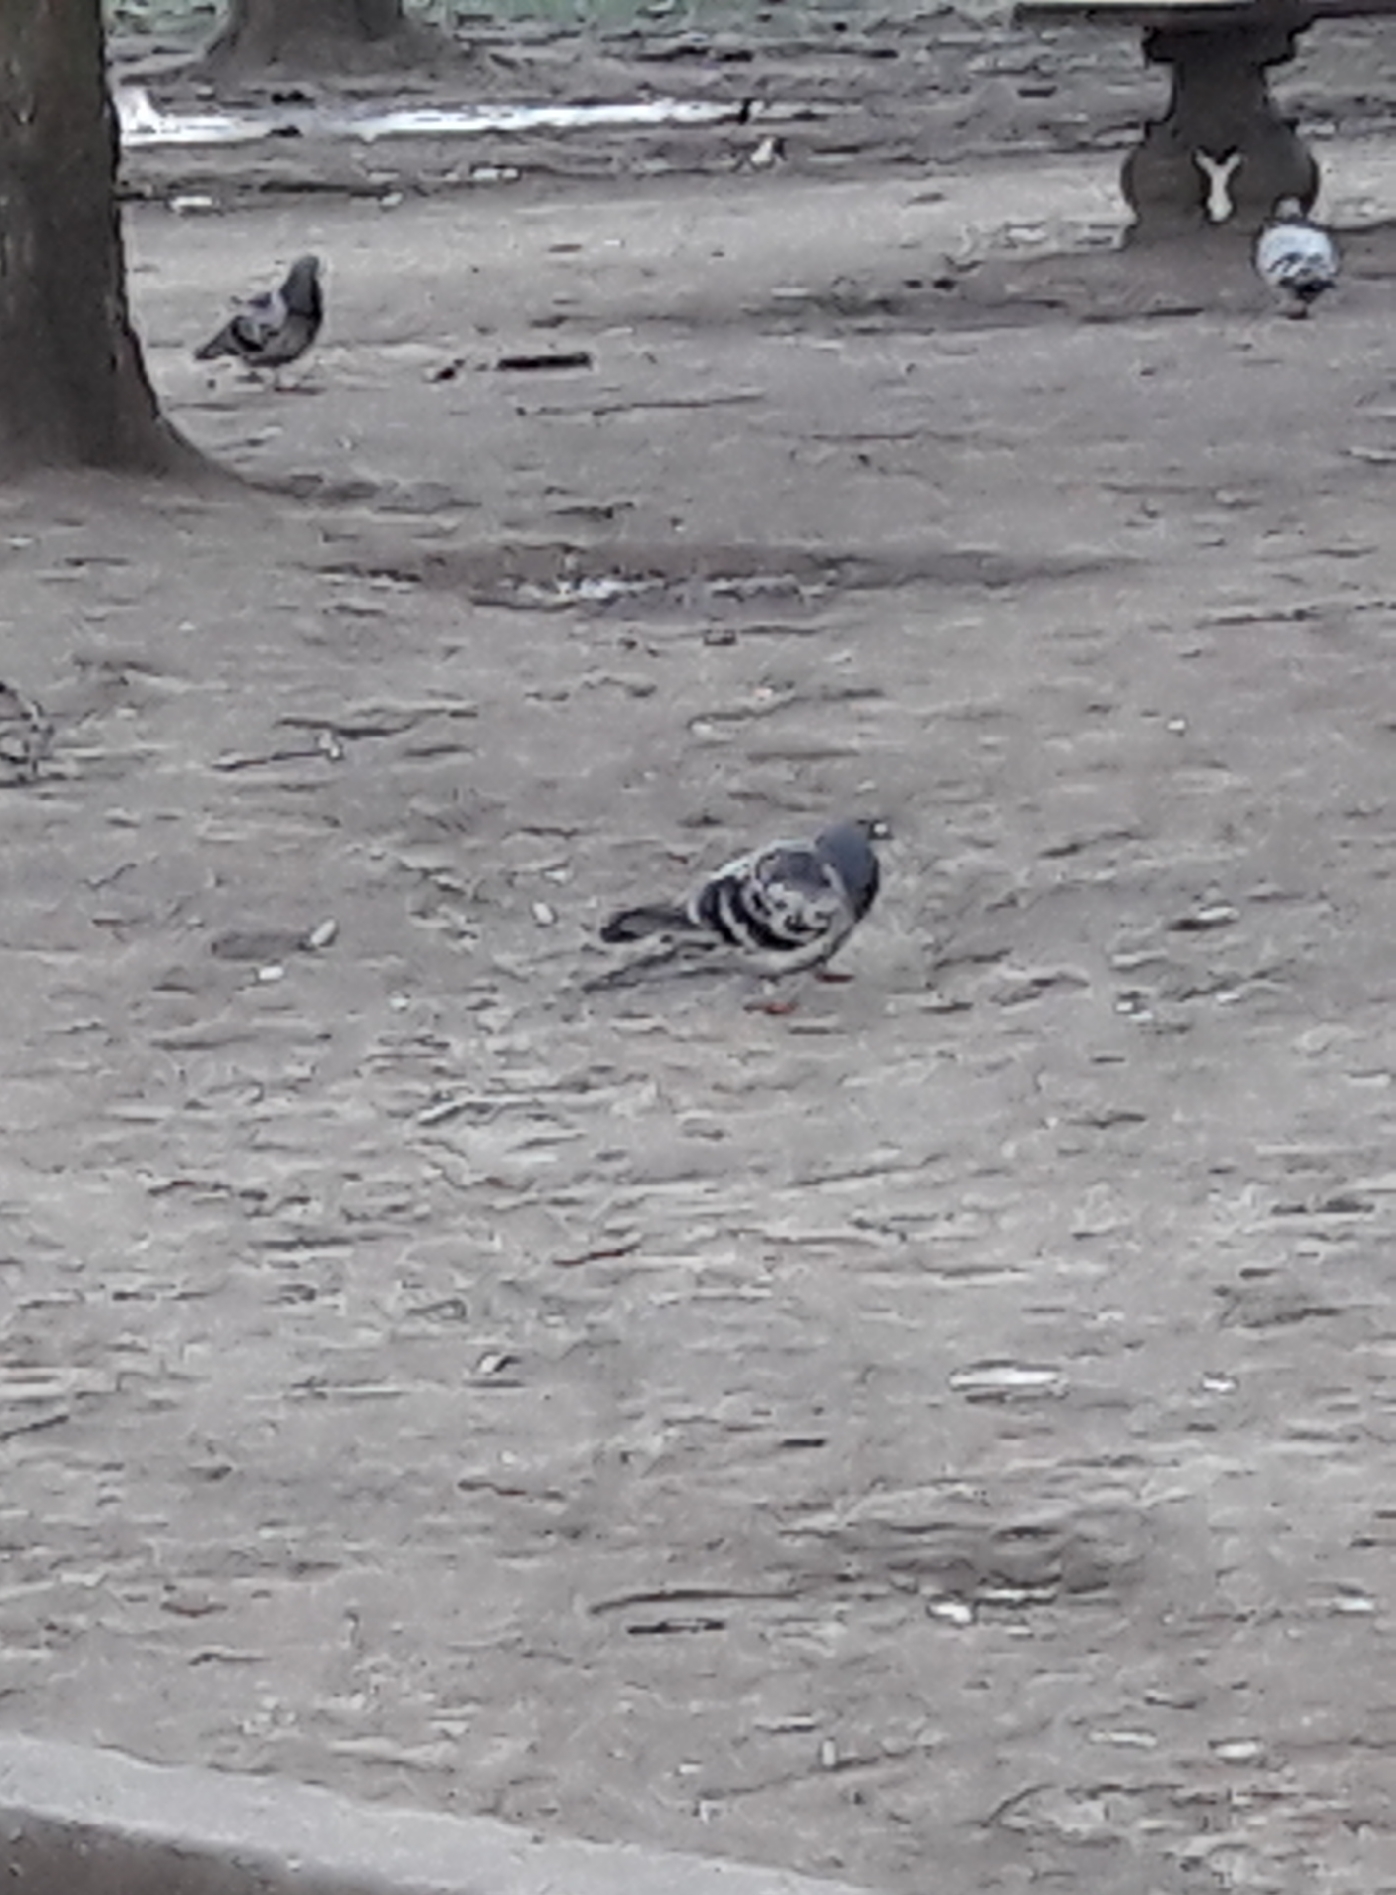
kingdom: Animalia
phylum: Chordata
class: Aves
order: Columbiformes
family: Columbidae
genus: Columba
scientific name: Columba livia
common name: Rock pigeon
